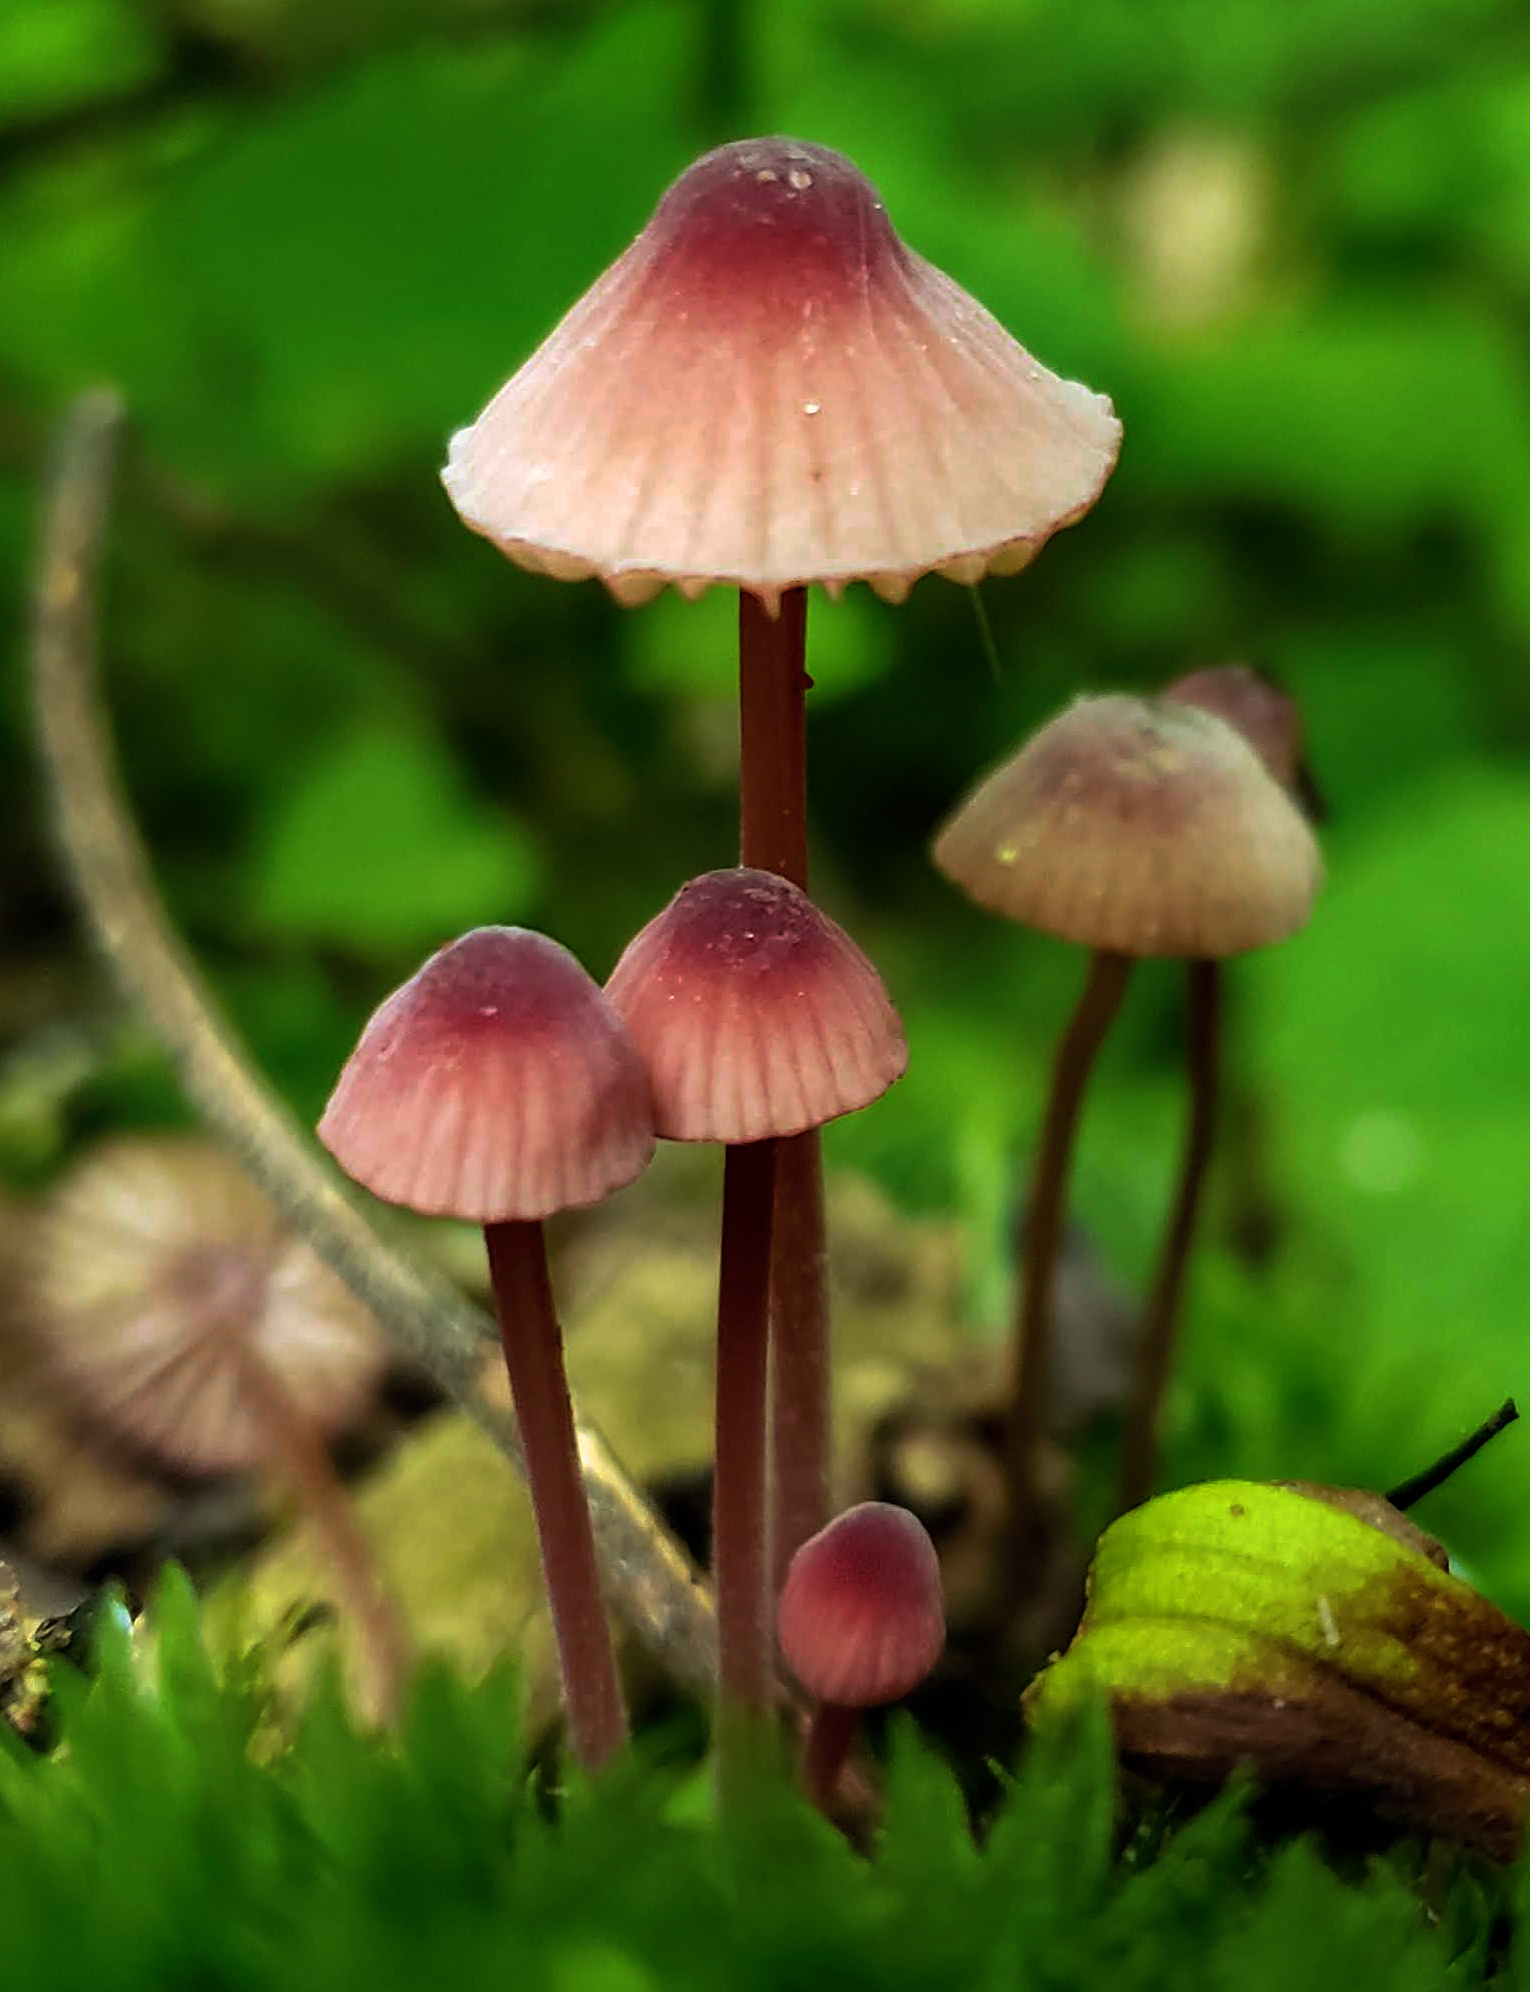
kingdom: Fungi
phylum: Basidiomycota
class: Agaricomycetes
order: Agaricales
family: Mycenaceae
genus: Mycena
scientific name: Mycena haematopus
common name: Burgundydrop bonnet
